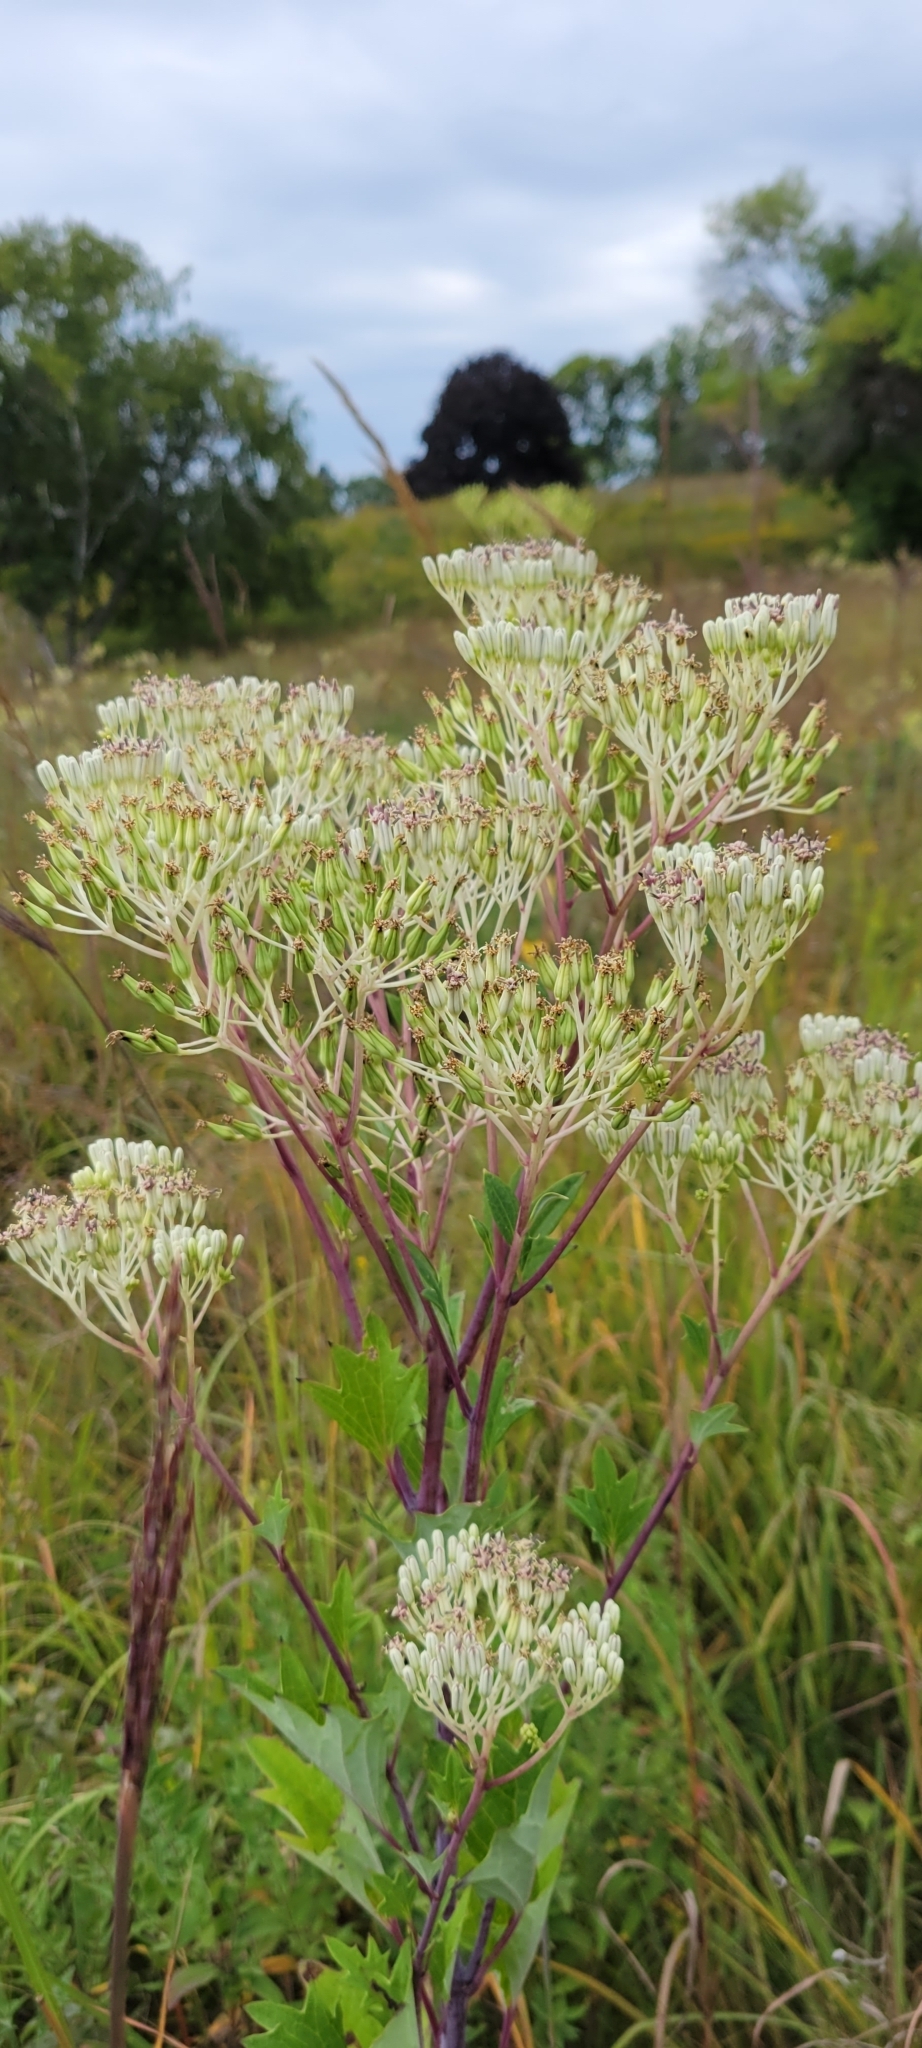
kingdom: Plantae
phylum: Tracheophyta
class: Magnoliopsida
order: Asterales
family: Asteraceae
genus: Arnoglossum
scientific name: Arnoglossum atriplicifolium
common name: Pale indian-plantain
